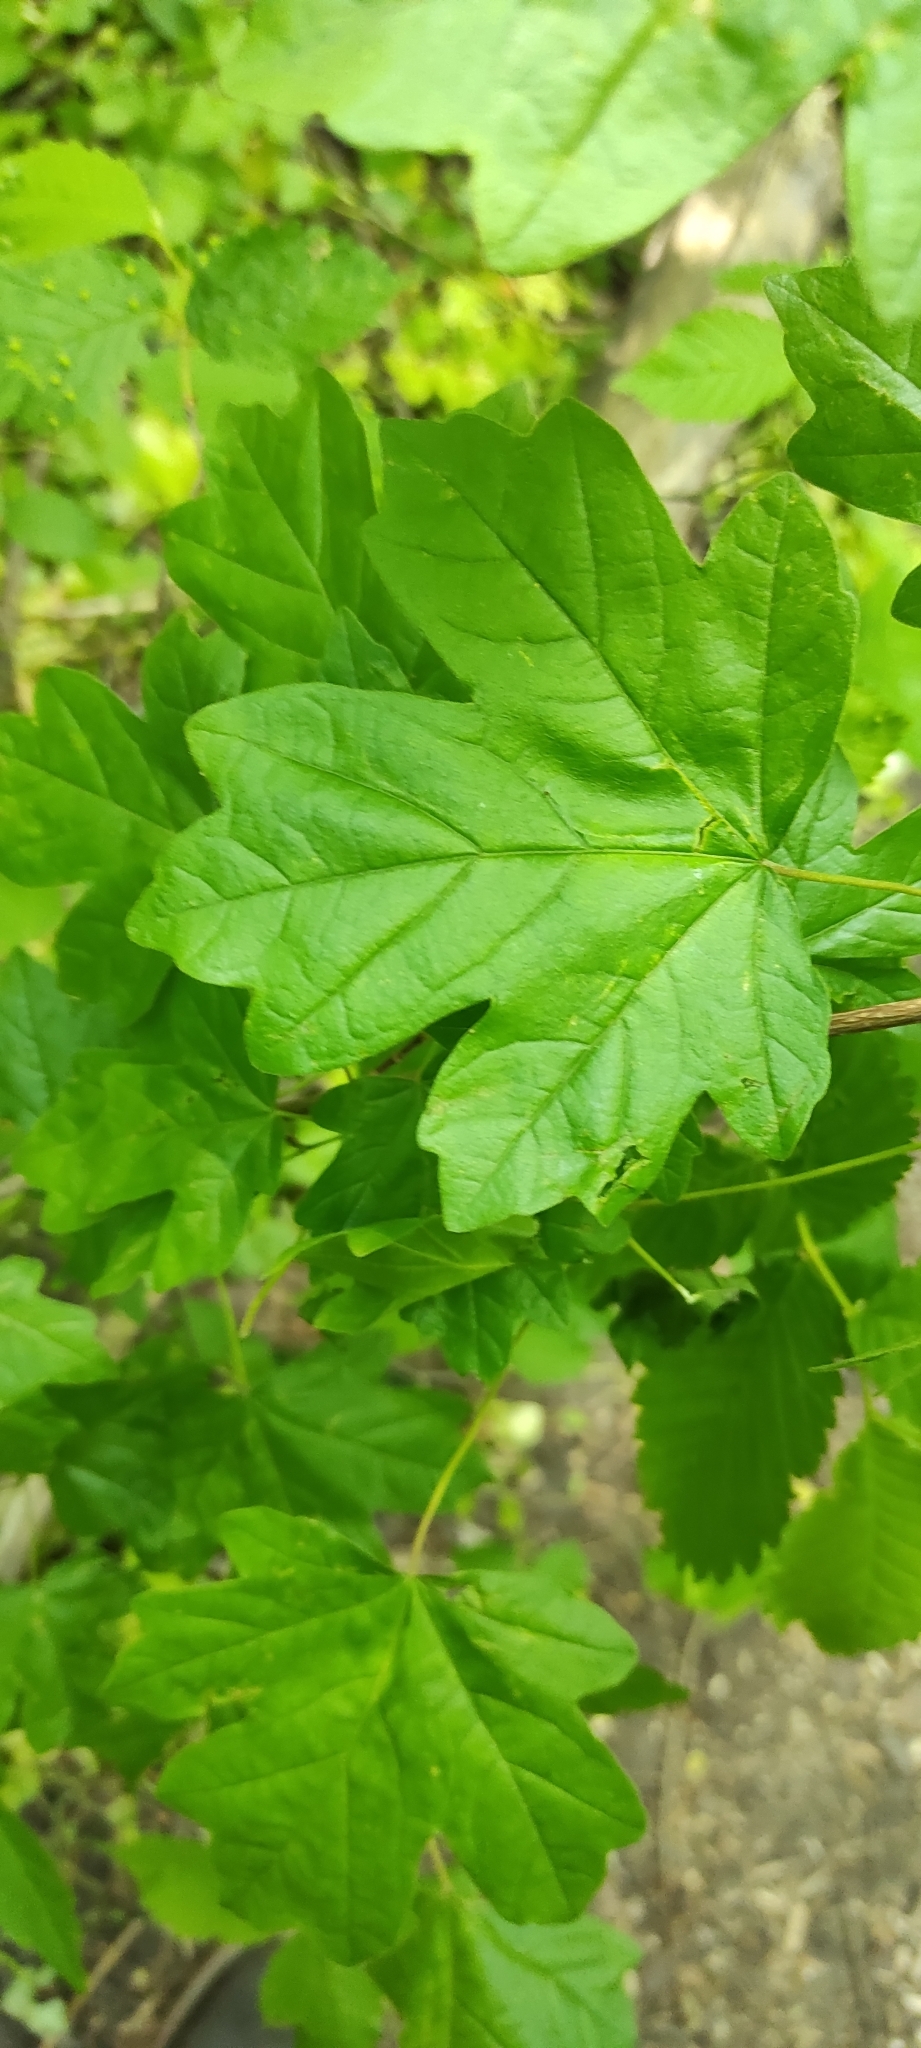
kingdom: Plantae
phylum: Tracheophyta
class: Magnoliopsida
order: Sapindales
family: Sapindaceae
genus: Acer
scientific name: Acer campestre
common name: Field maple
